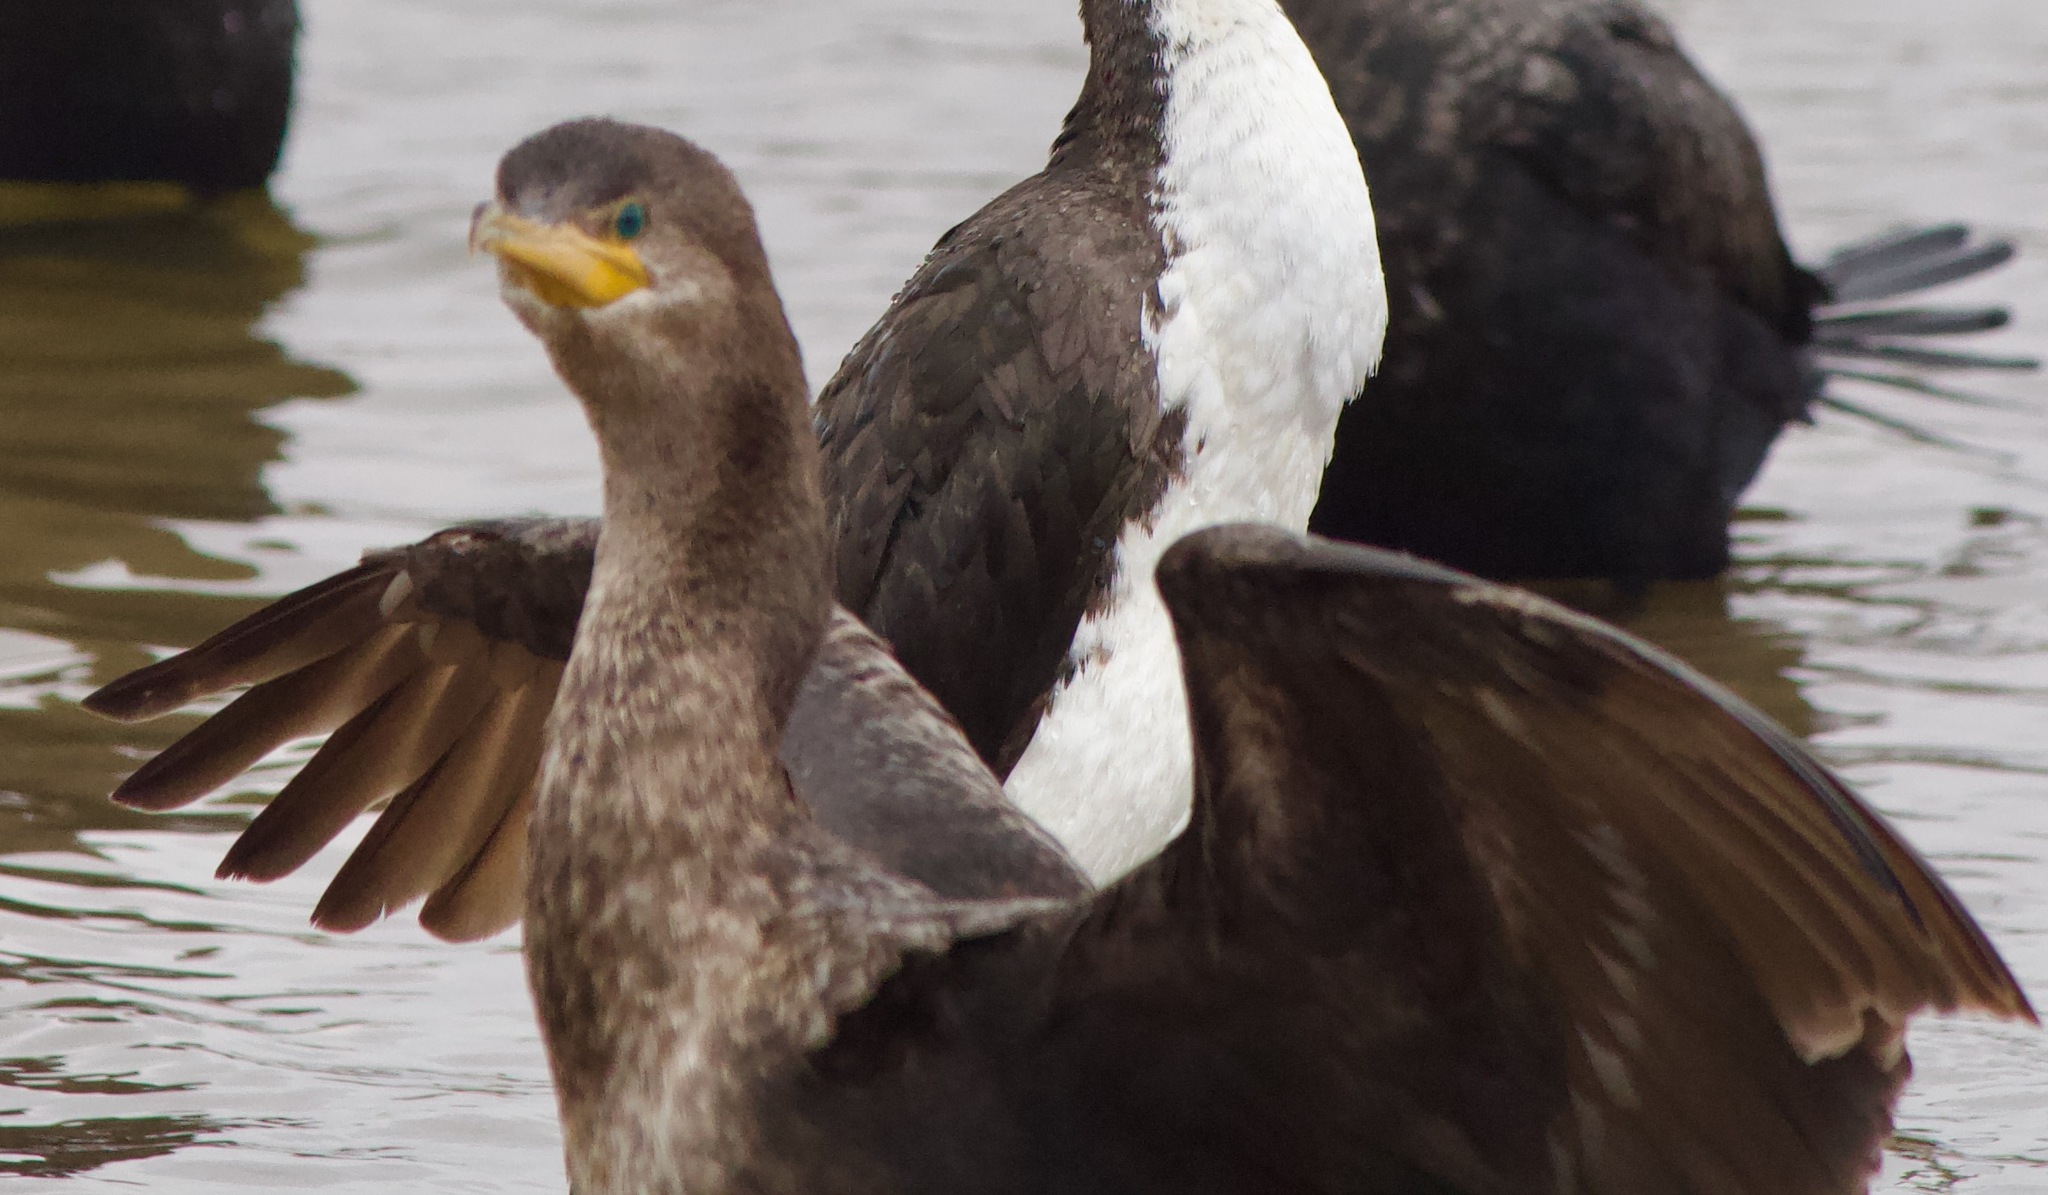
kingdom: Animalia
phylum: Chordata
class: Aves
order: Suliformes
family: Phalacrocoracidae
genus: Phalacrocorax
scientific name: Phalacrocorax brasilianus
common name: Neotropic cormorant
